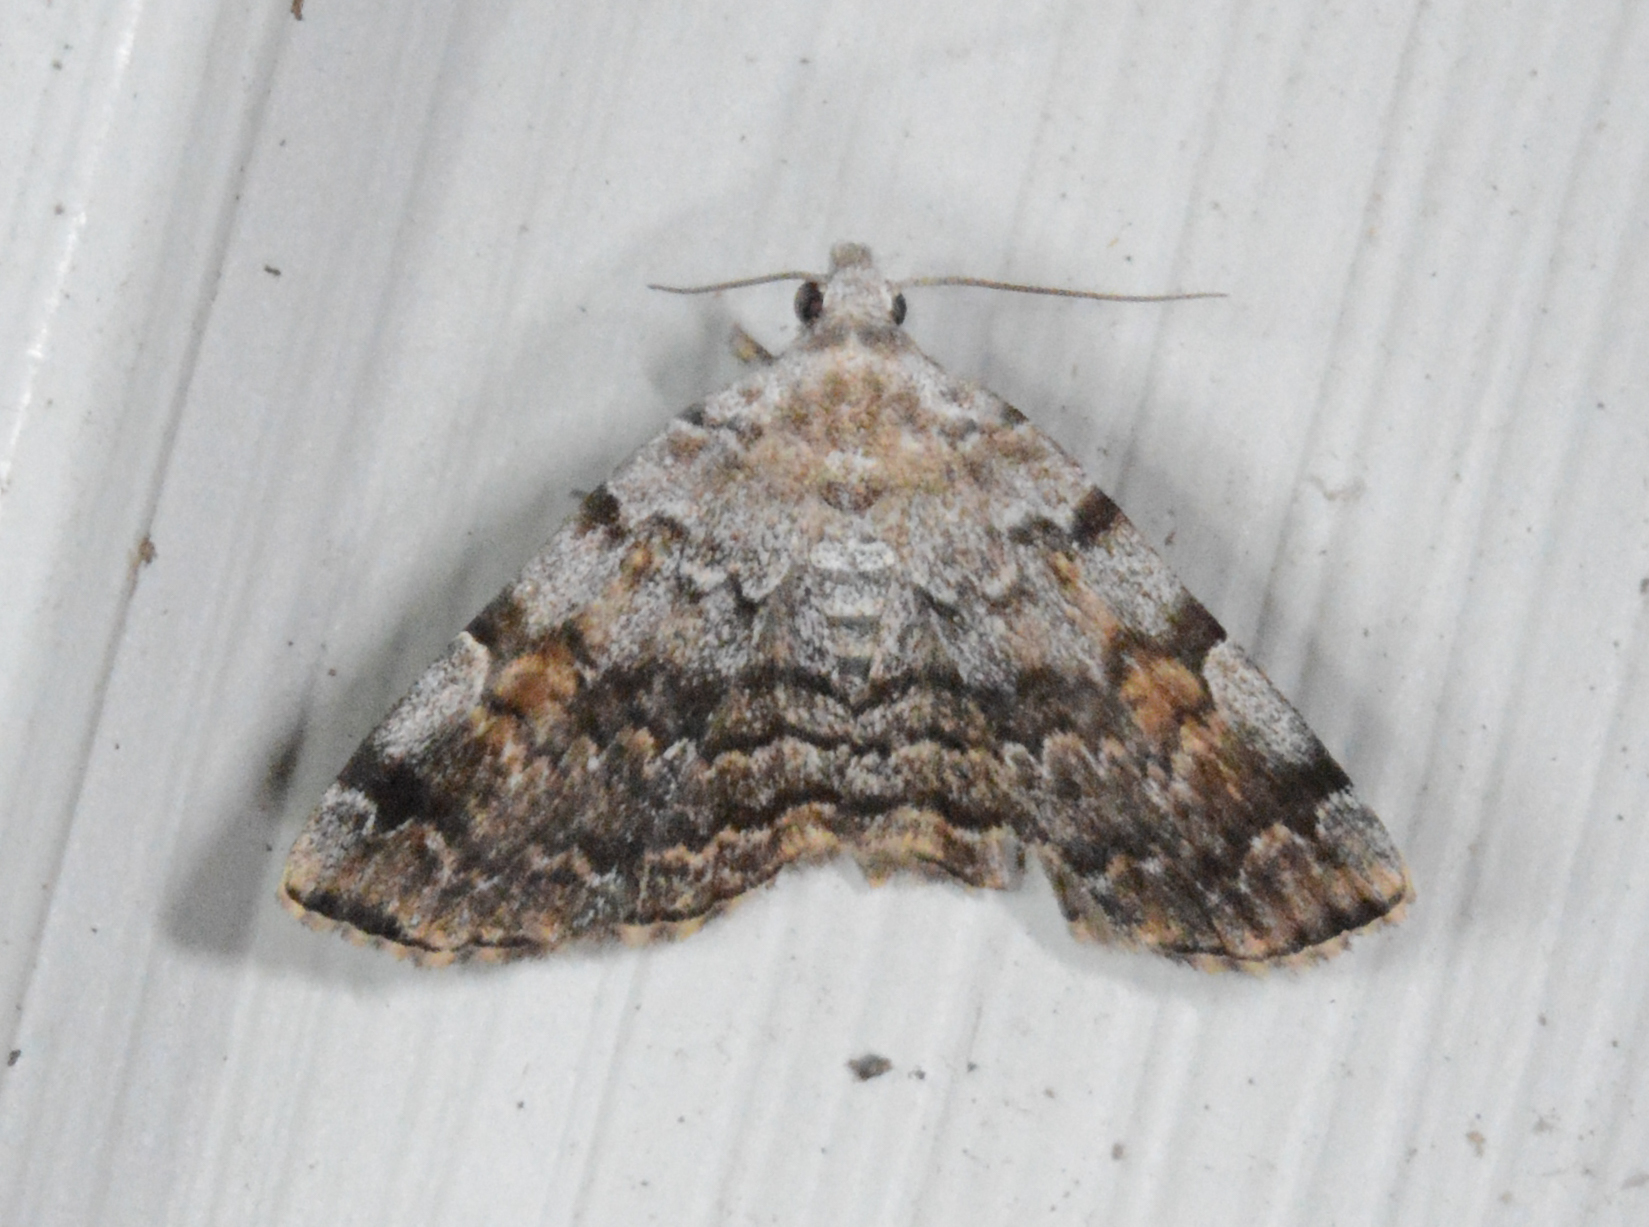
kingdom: Animalia
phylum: Arthropoda
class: Insecta
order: Lepidoptera
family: Erebidae
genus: Idia
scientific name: Idia americalis
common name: American idia moth
